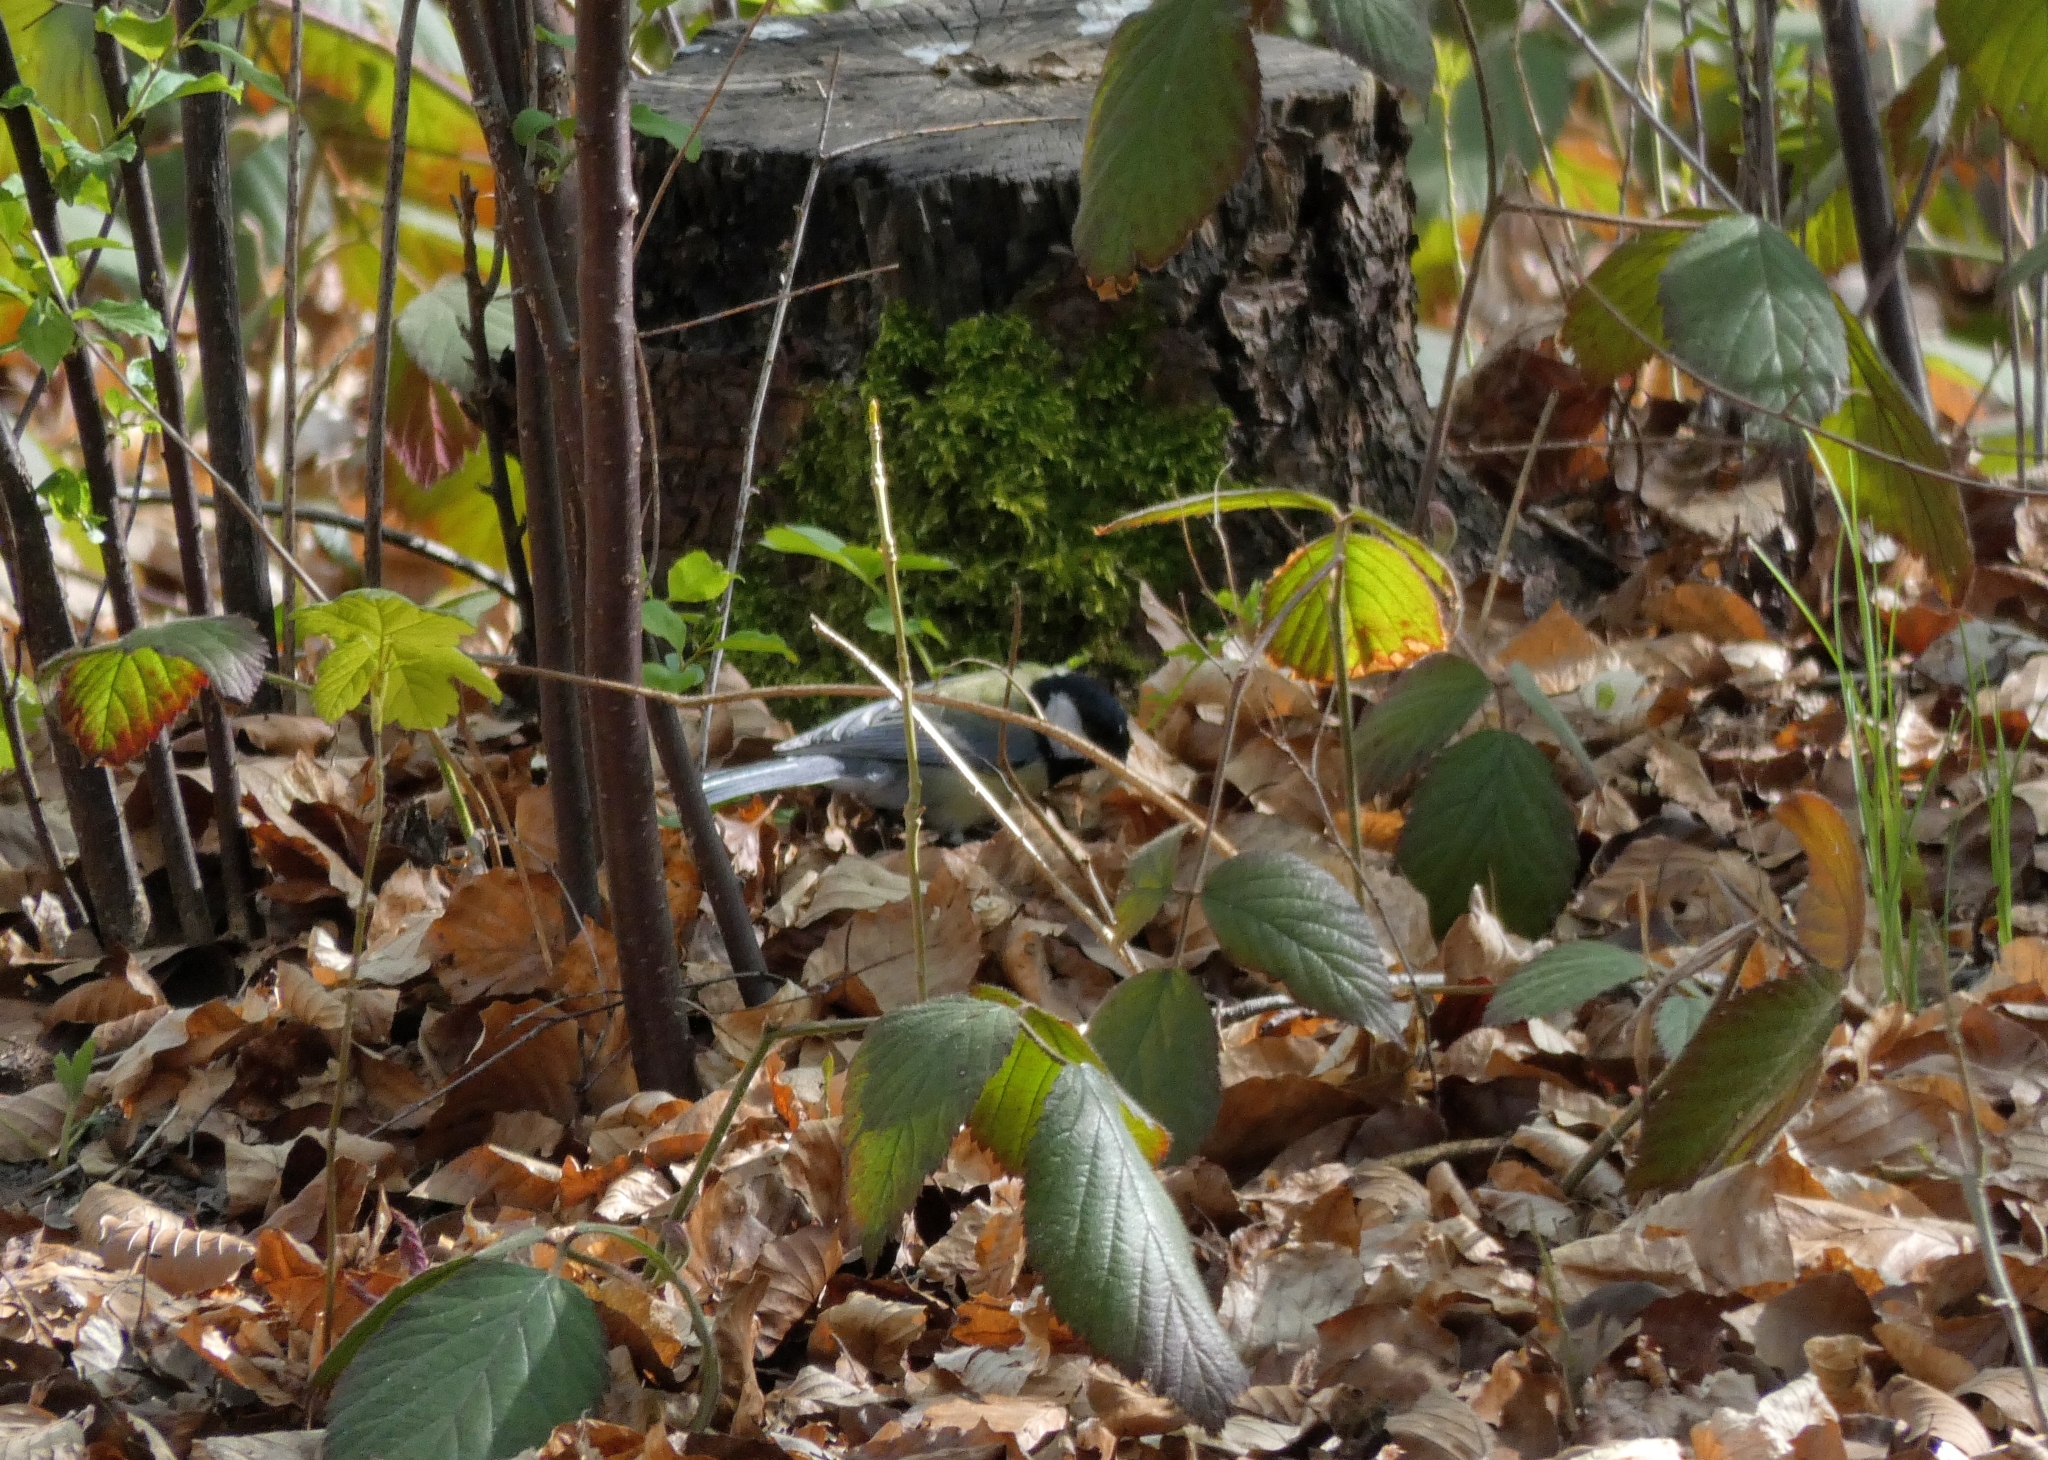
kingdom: Animalia
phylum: Chordata
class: Aves
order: Passeriformes
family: Paridae
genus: Parus
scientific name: Parus major
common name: Great tit
